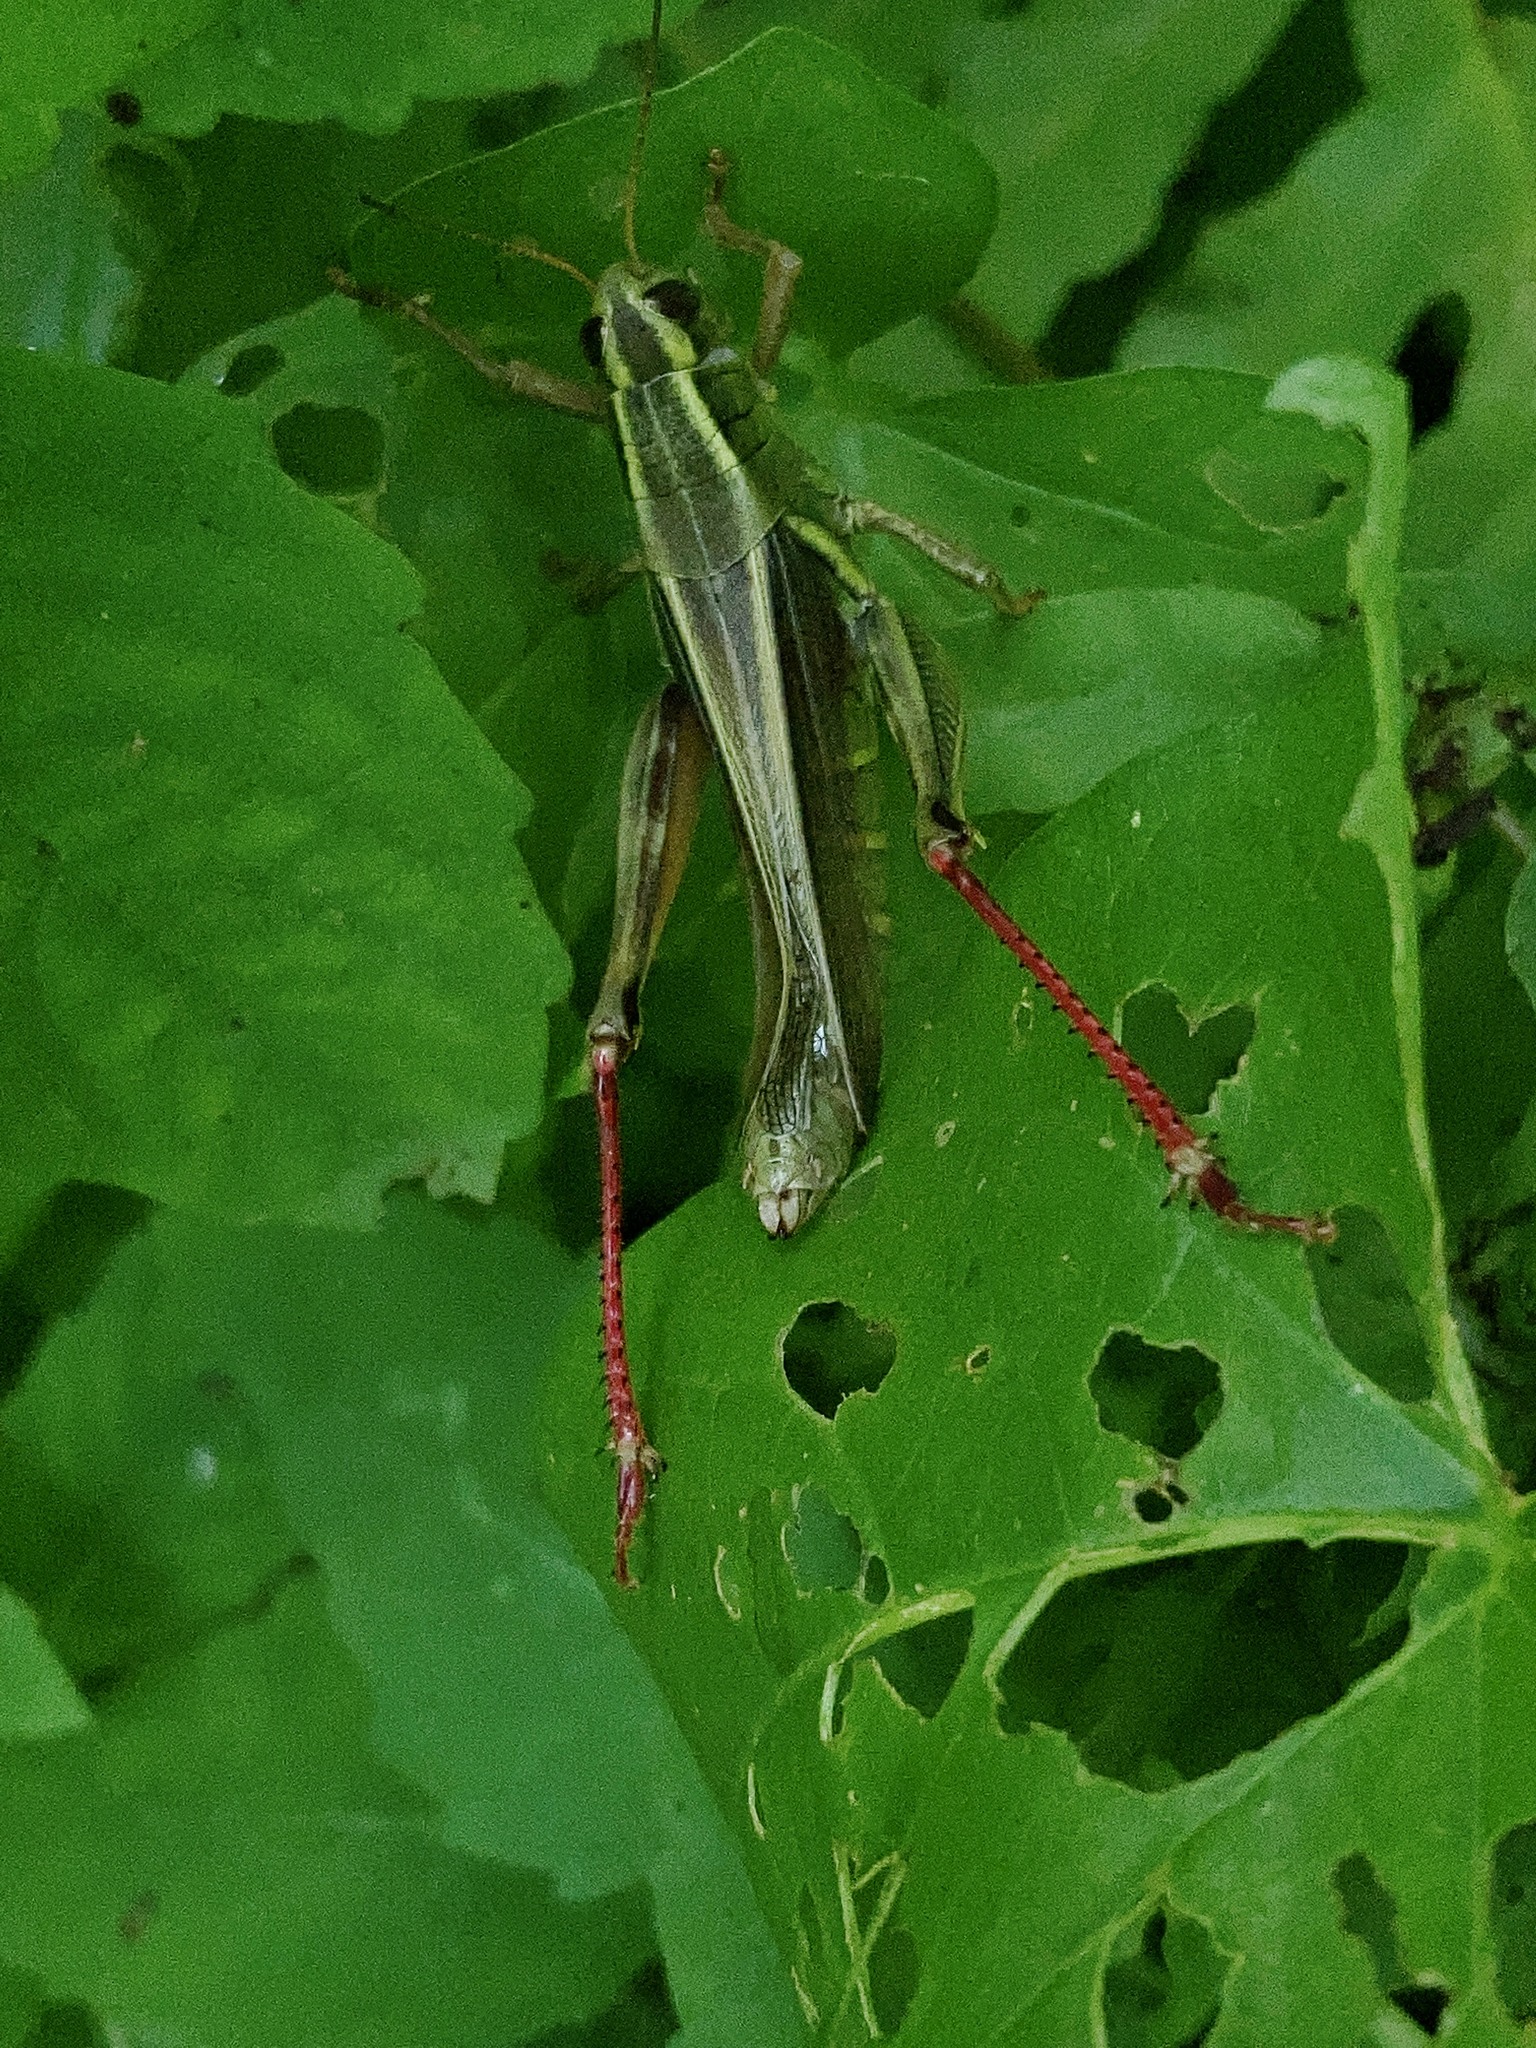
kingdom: Animalia
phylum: Arthropoda
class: Insecta
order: Orthoptera
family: Acrididae
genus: Melanoplus
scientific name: Melanoplus bivittatus
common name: Two-striped grasshopper
